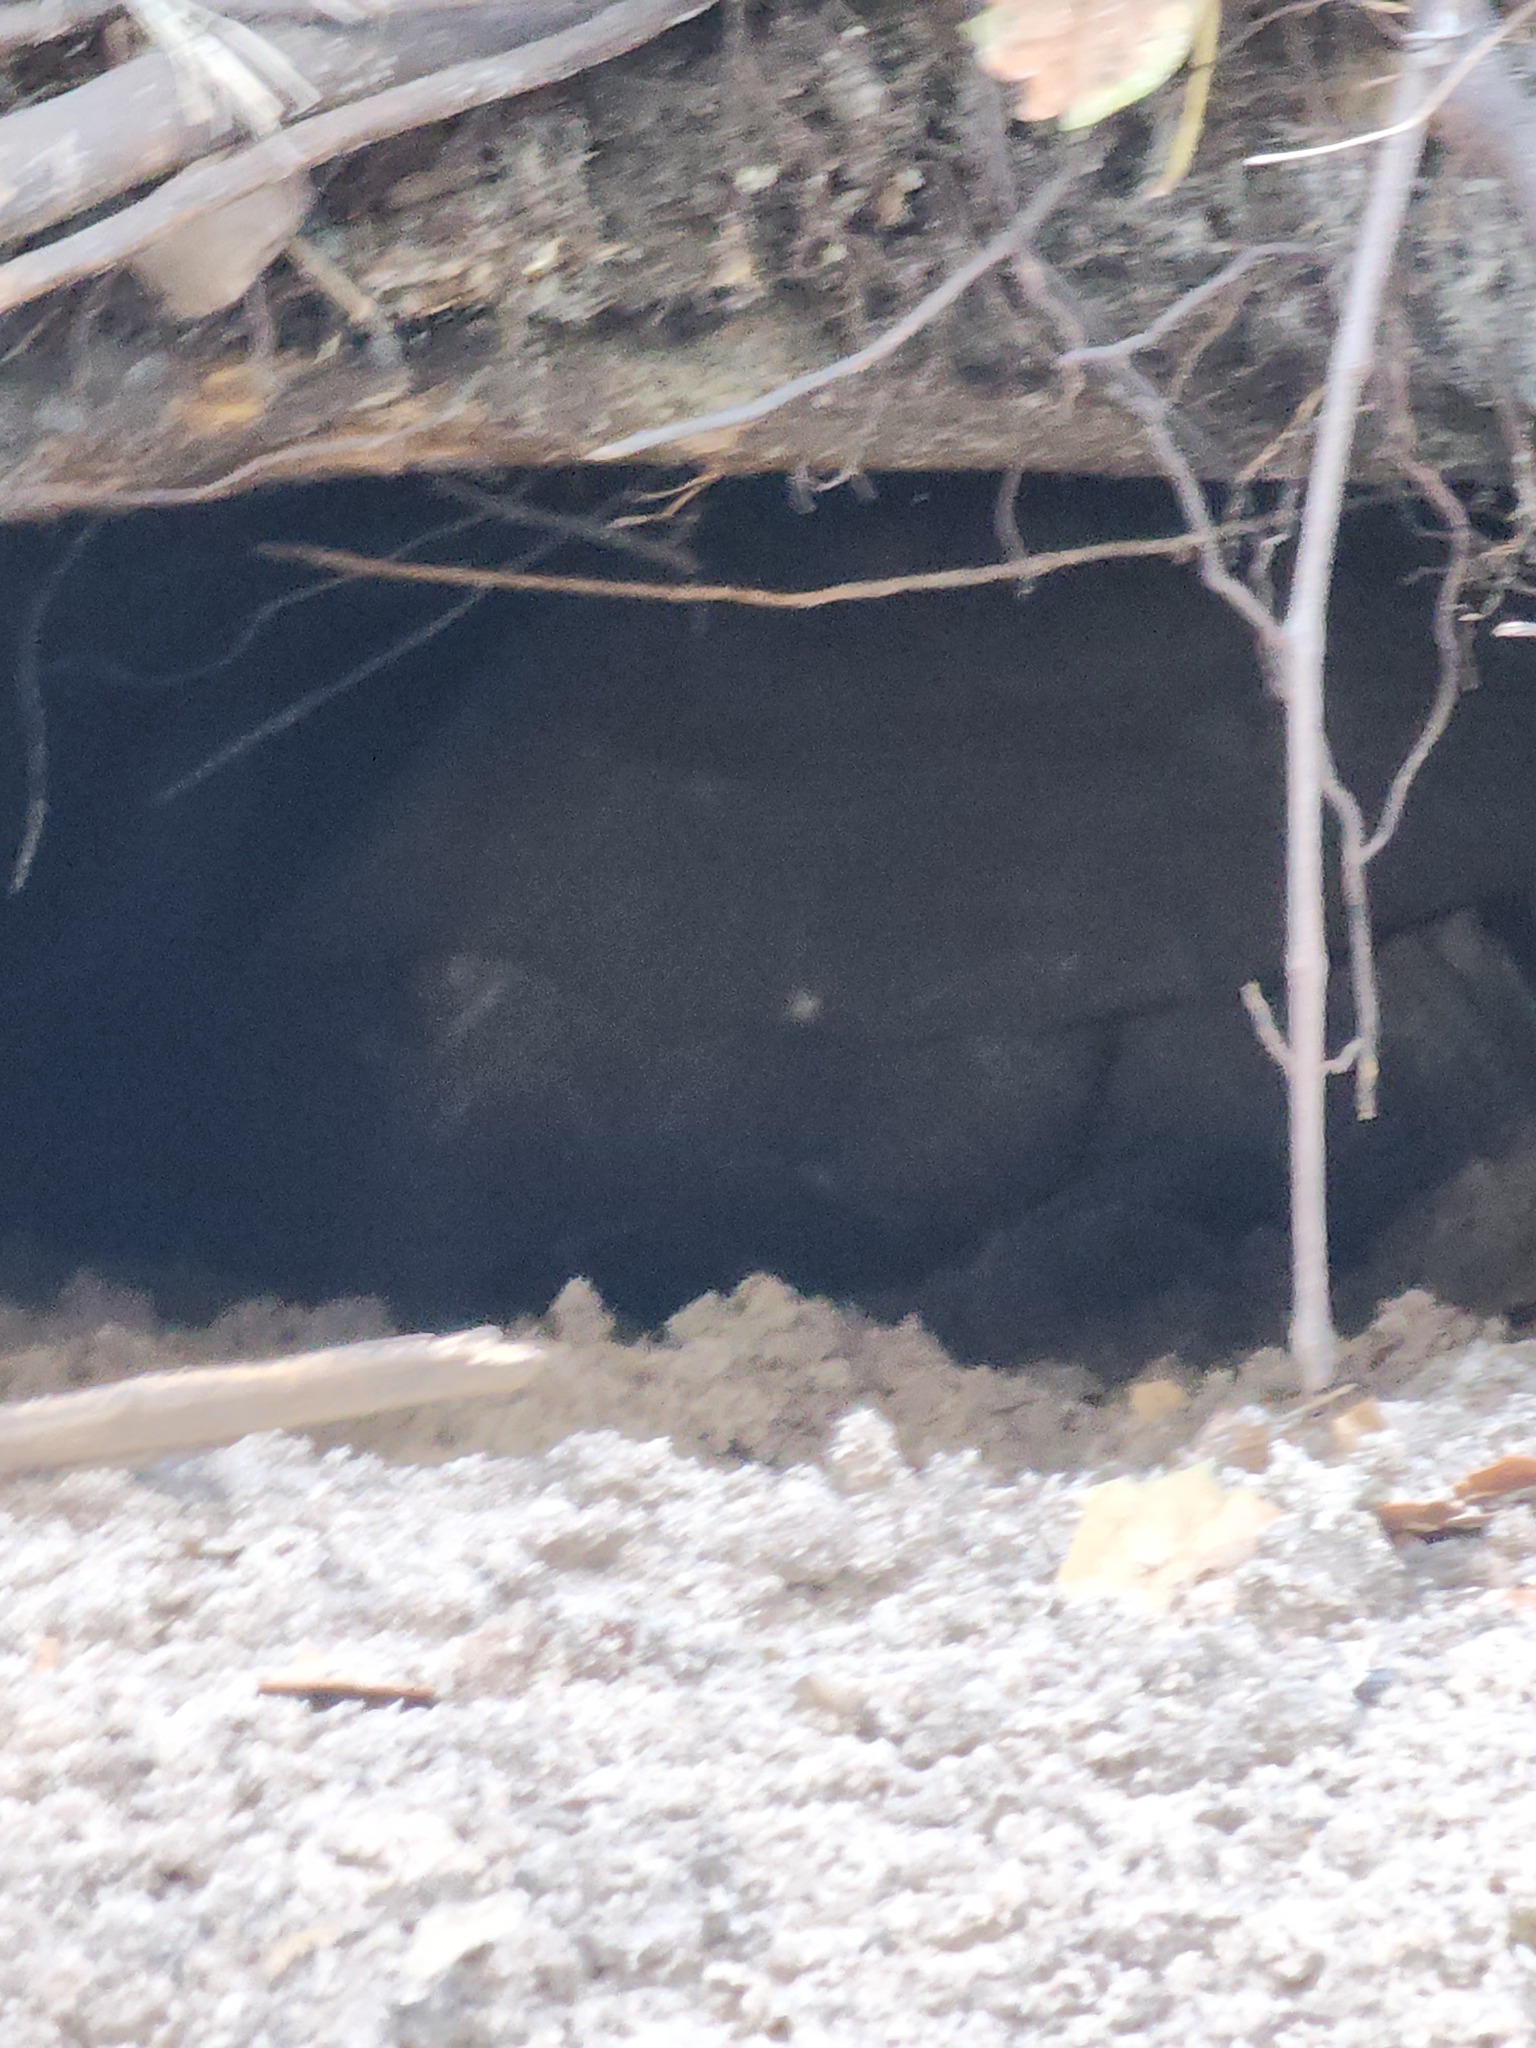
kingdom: Animalia
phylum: Chordata
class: Testudines
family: Testudinidae
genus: Gopherus
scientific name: Gopherus polyphemus
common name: Florida gopher tortoise
